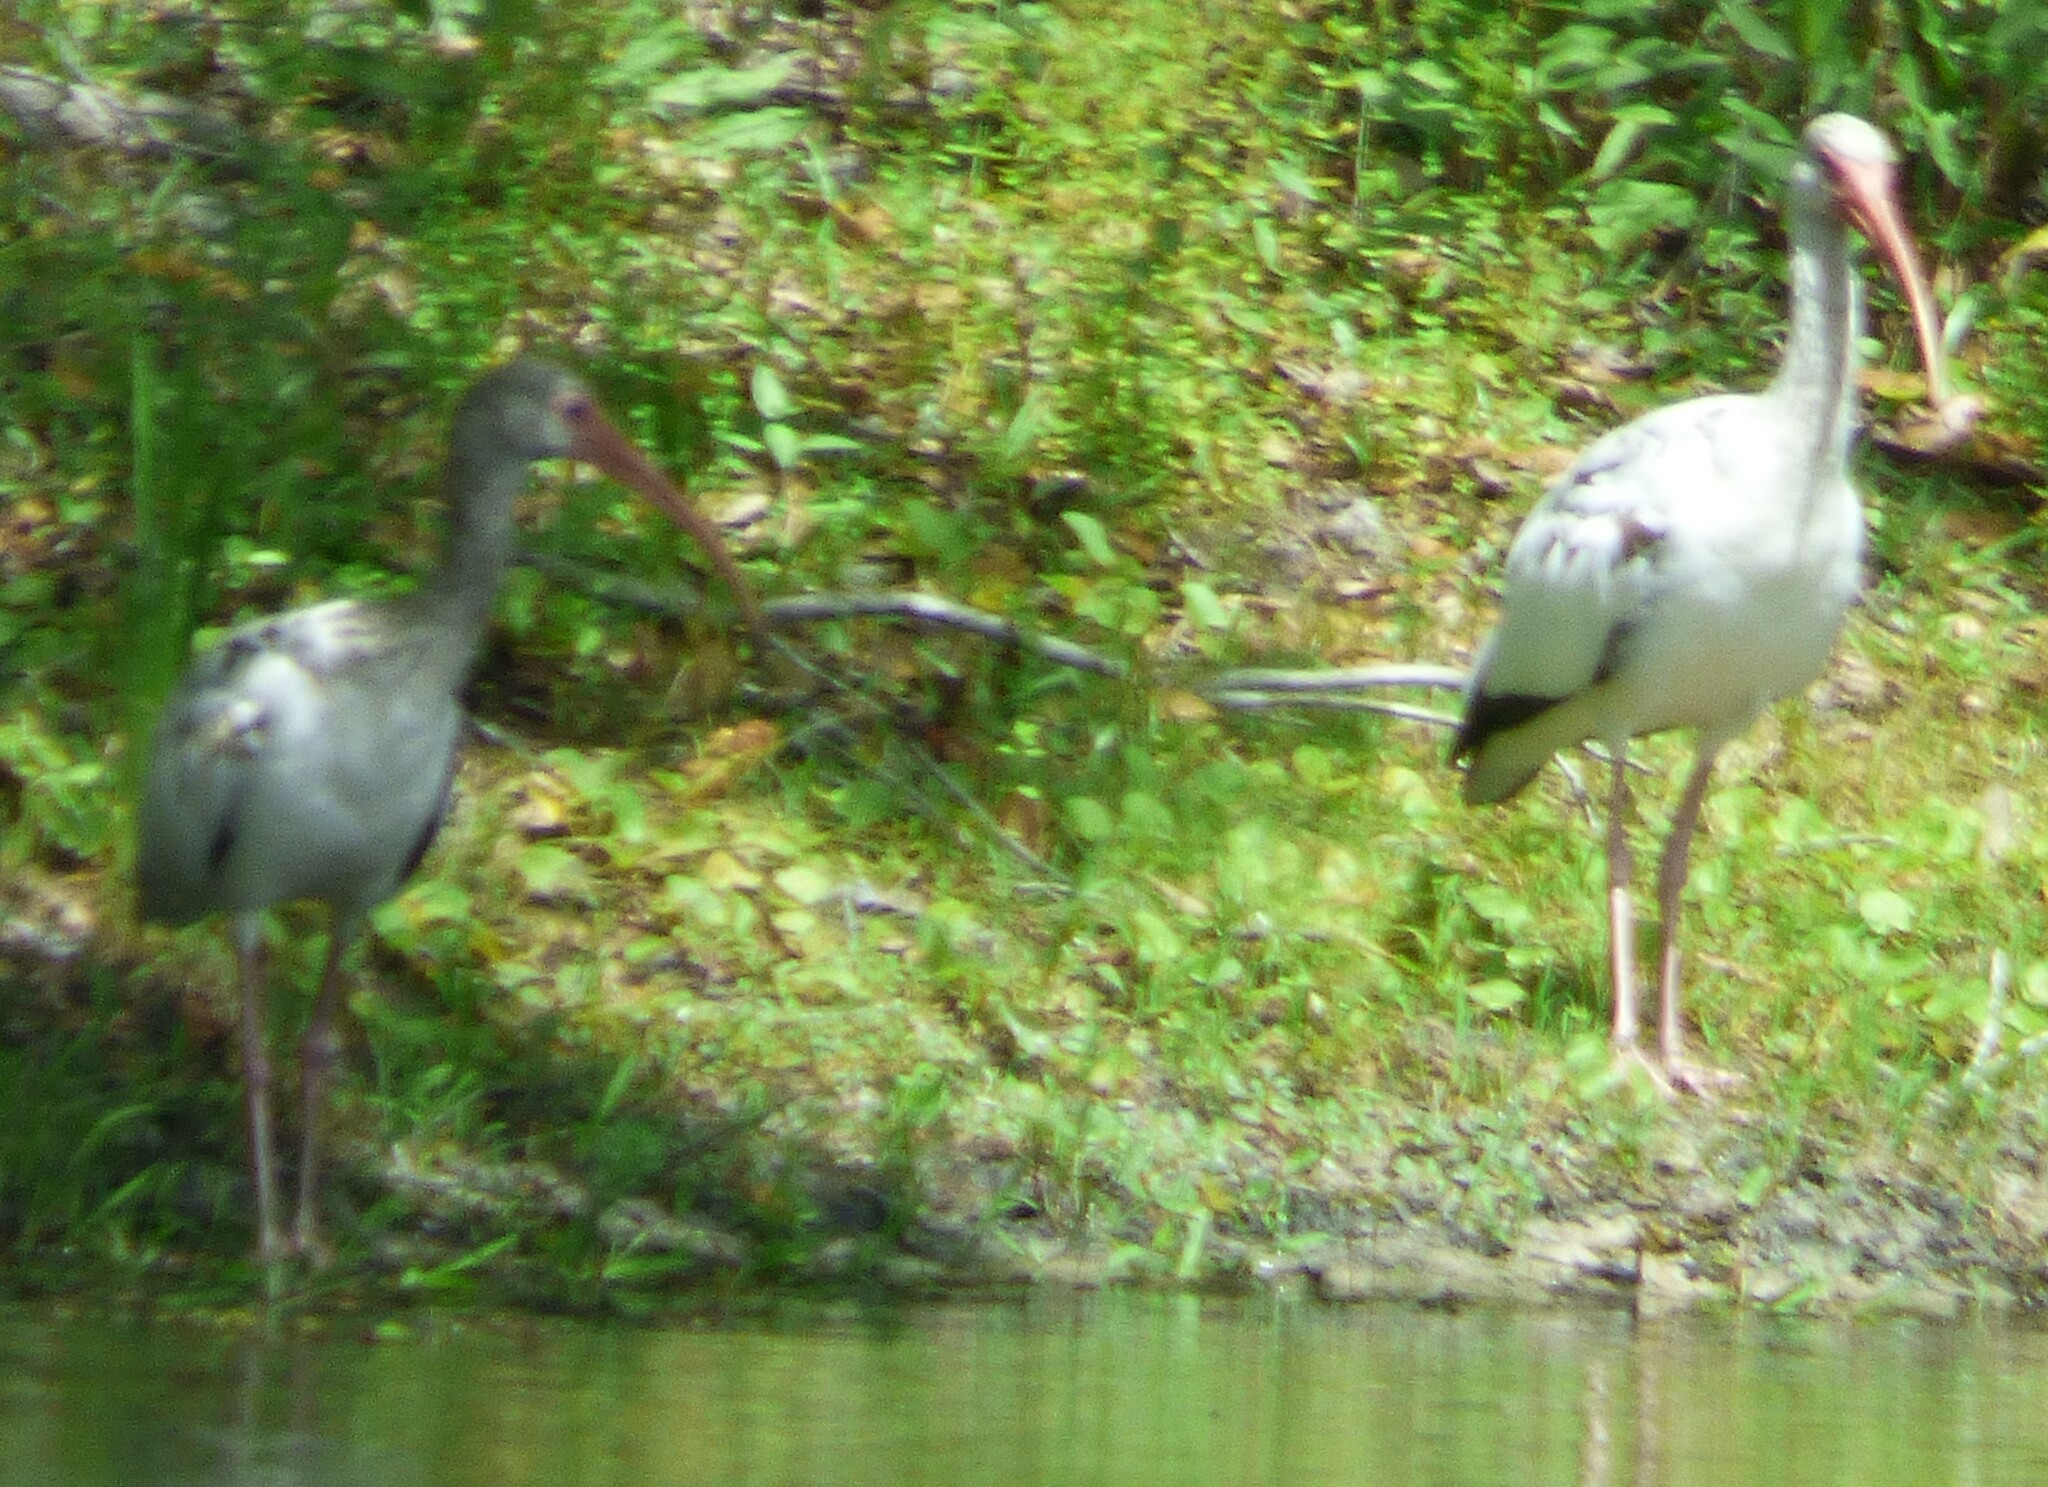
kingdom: Animalia
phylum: Chordata
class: Aves
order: Pelecaniformes
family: Threskiornithidae
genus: Eudocimus
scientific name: Eudocimus albus
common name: White ibis
